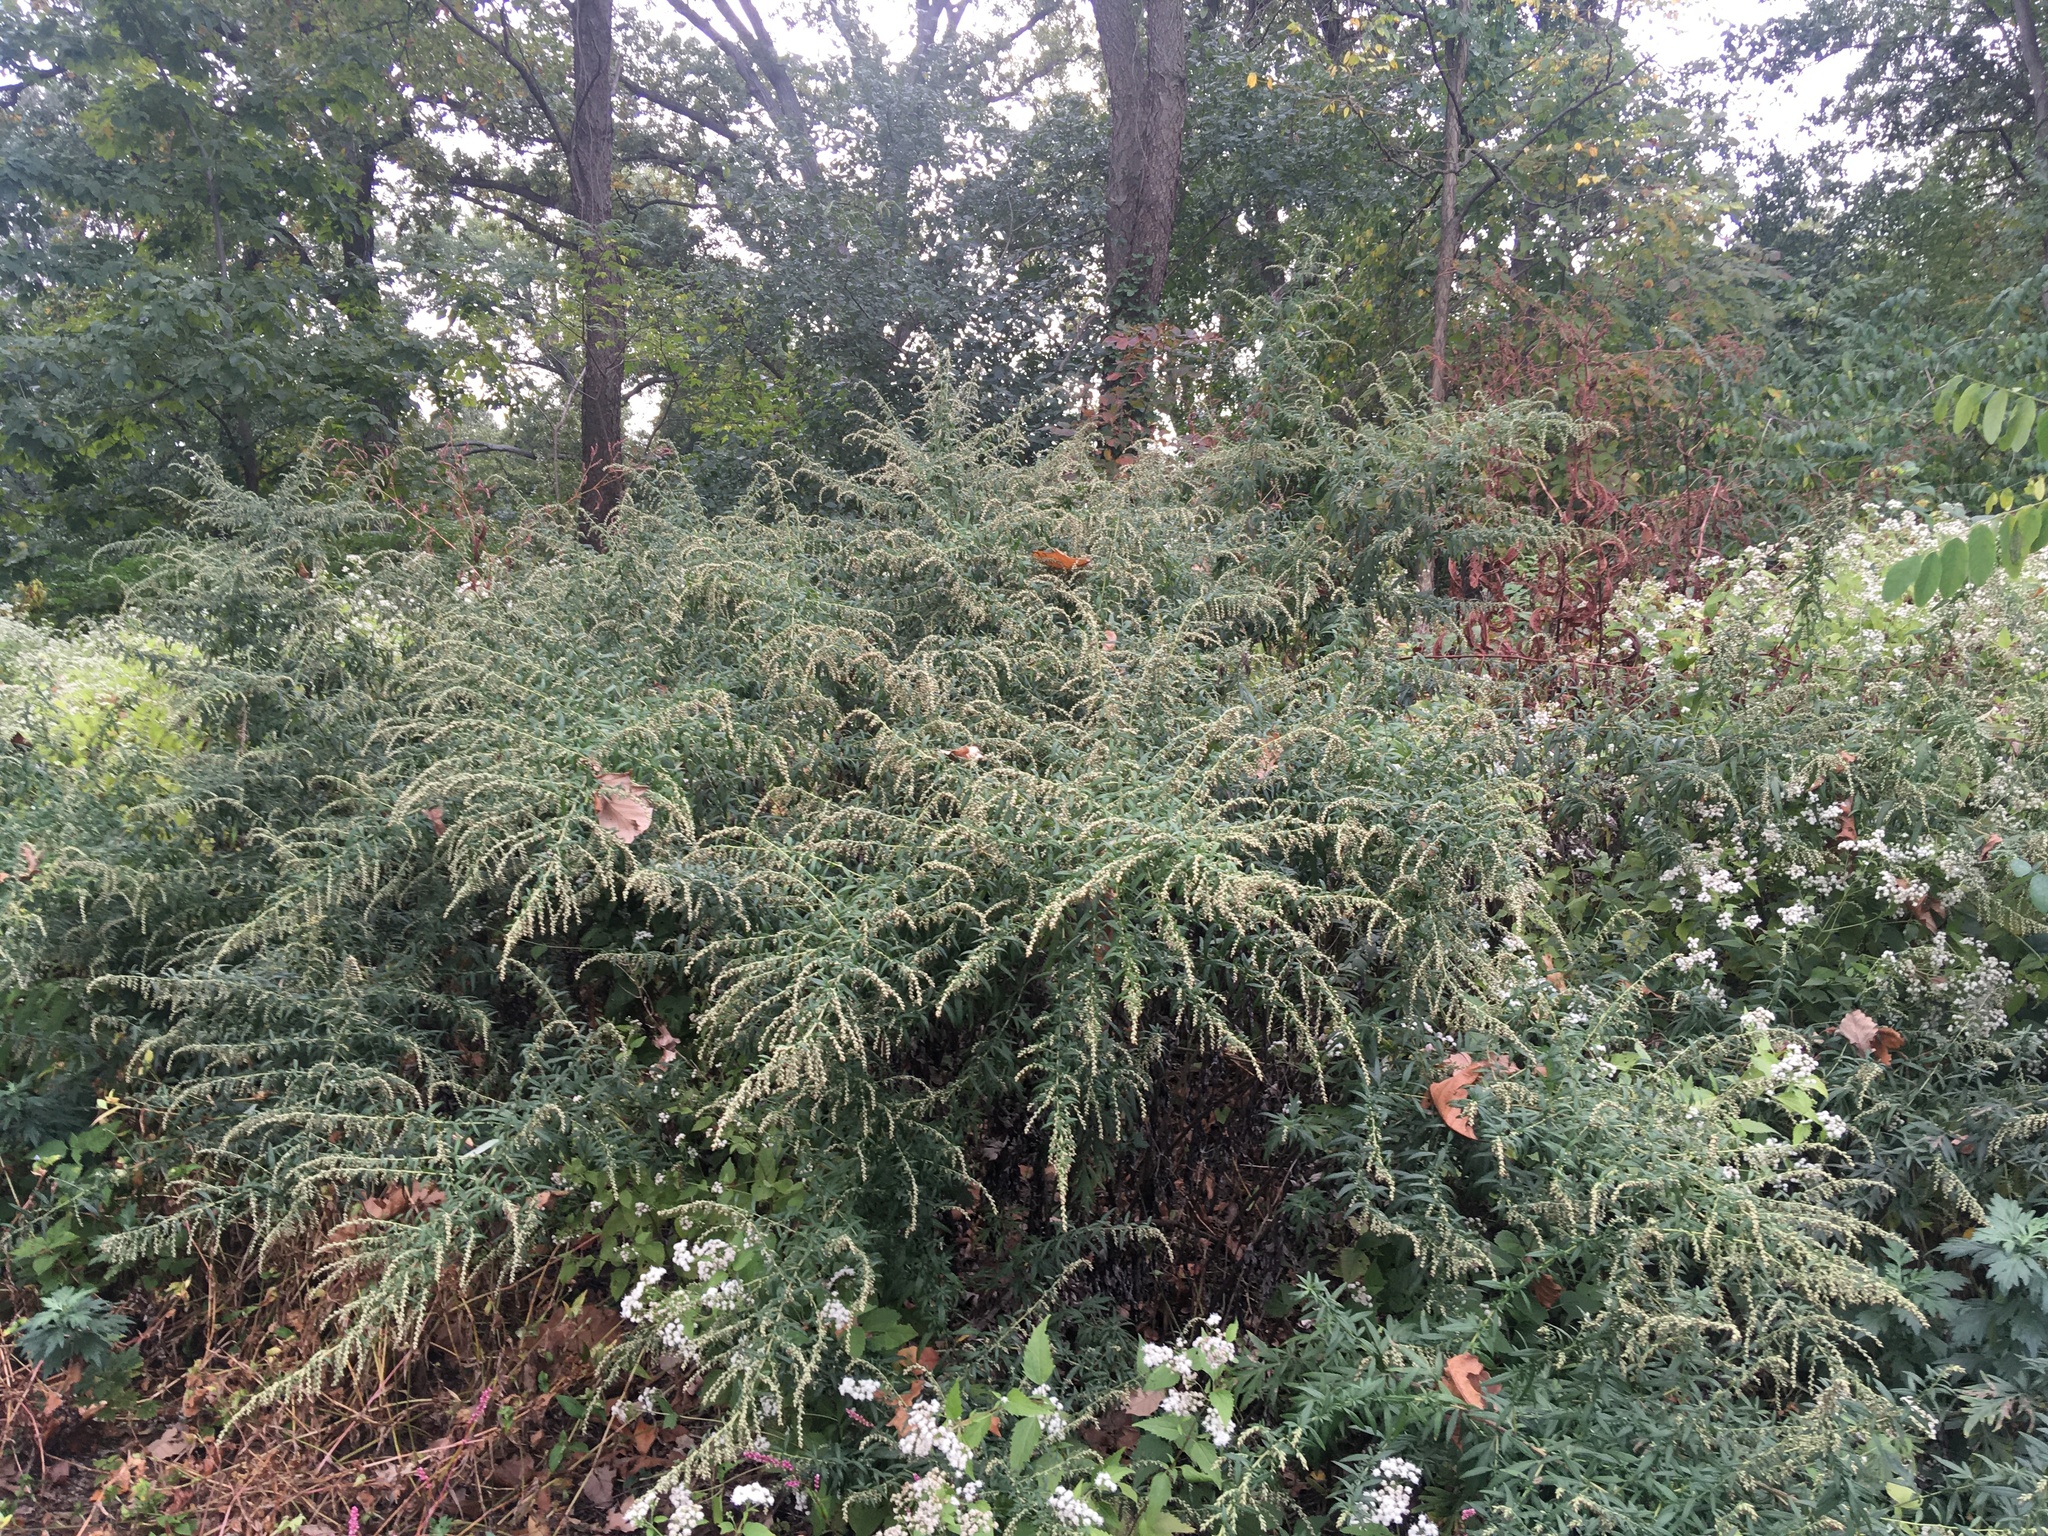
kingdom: Plantae
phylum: Tracheophyta
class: Magnoliopsida
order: Asterales
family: Asteraceae
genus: Artemisia
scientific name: Artemisia vulgaris
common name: Mugwort
